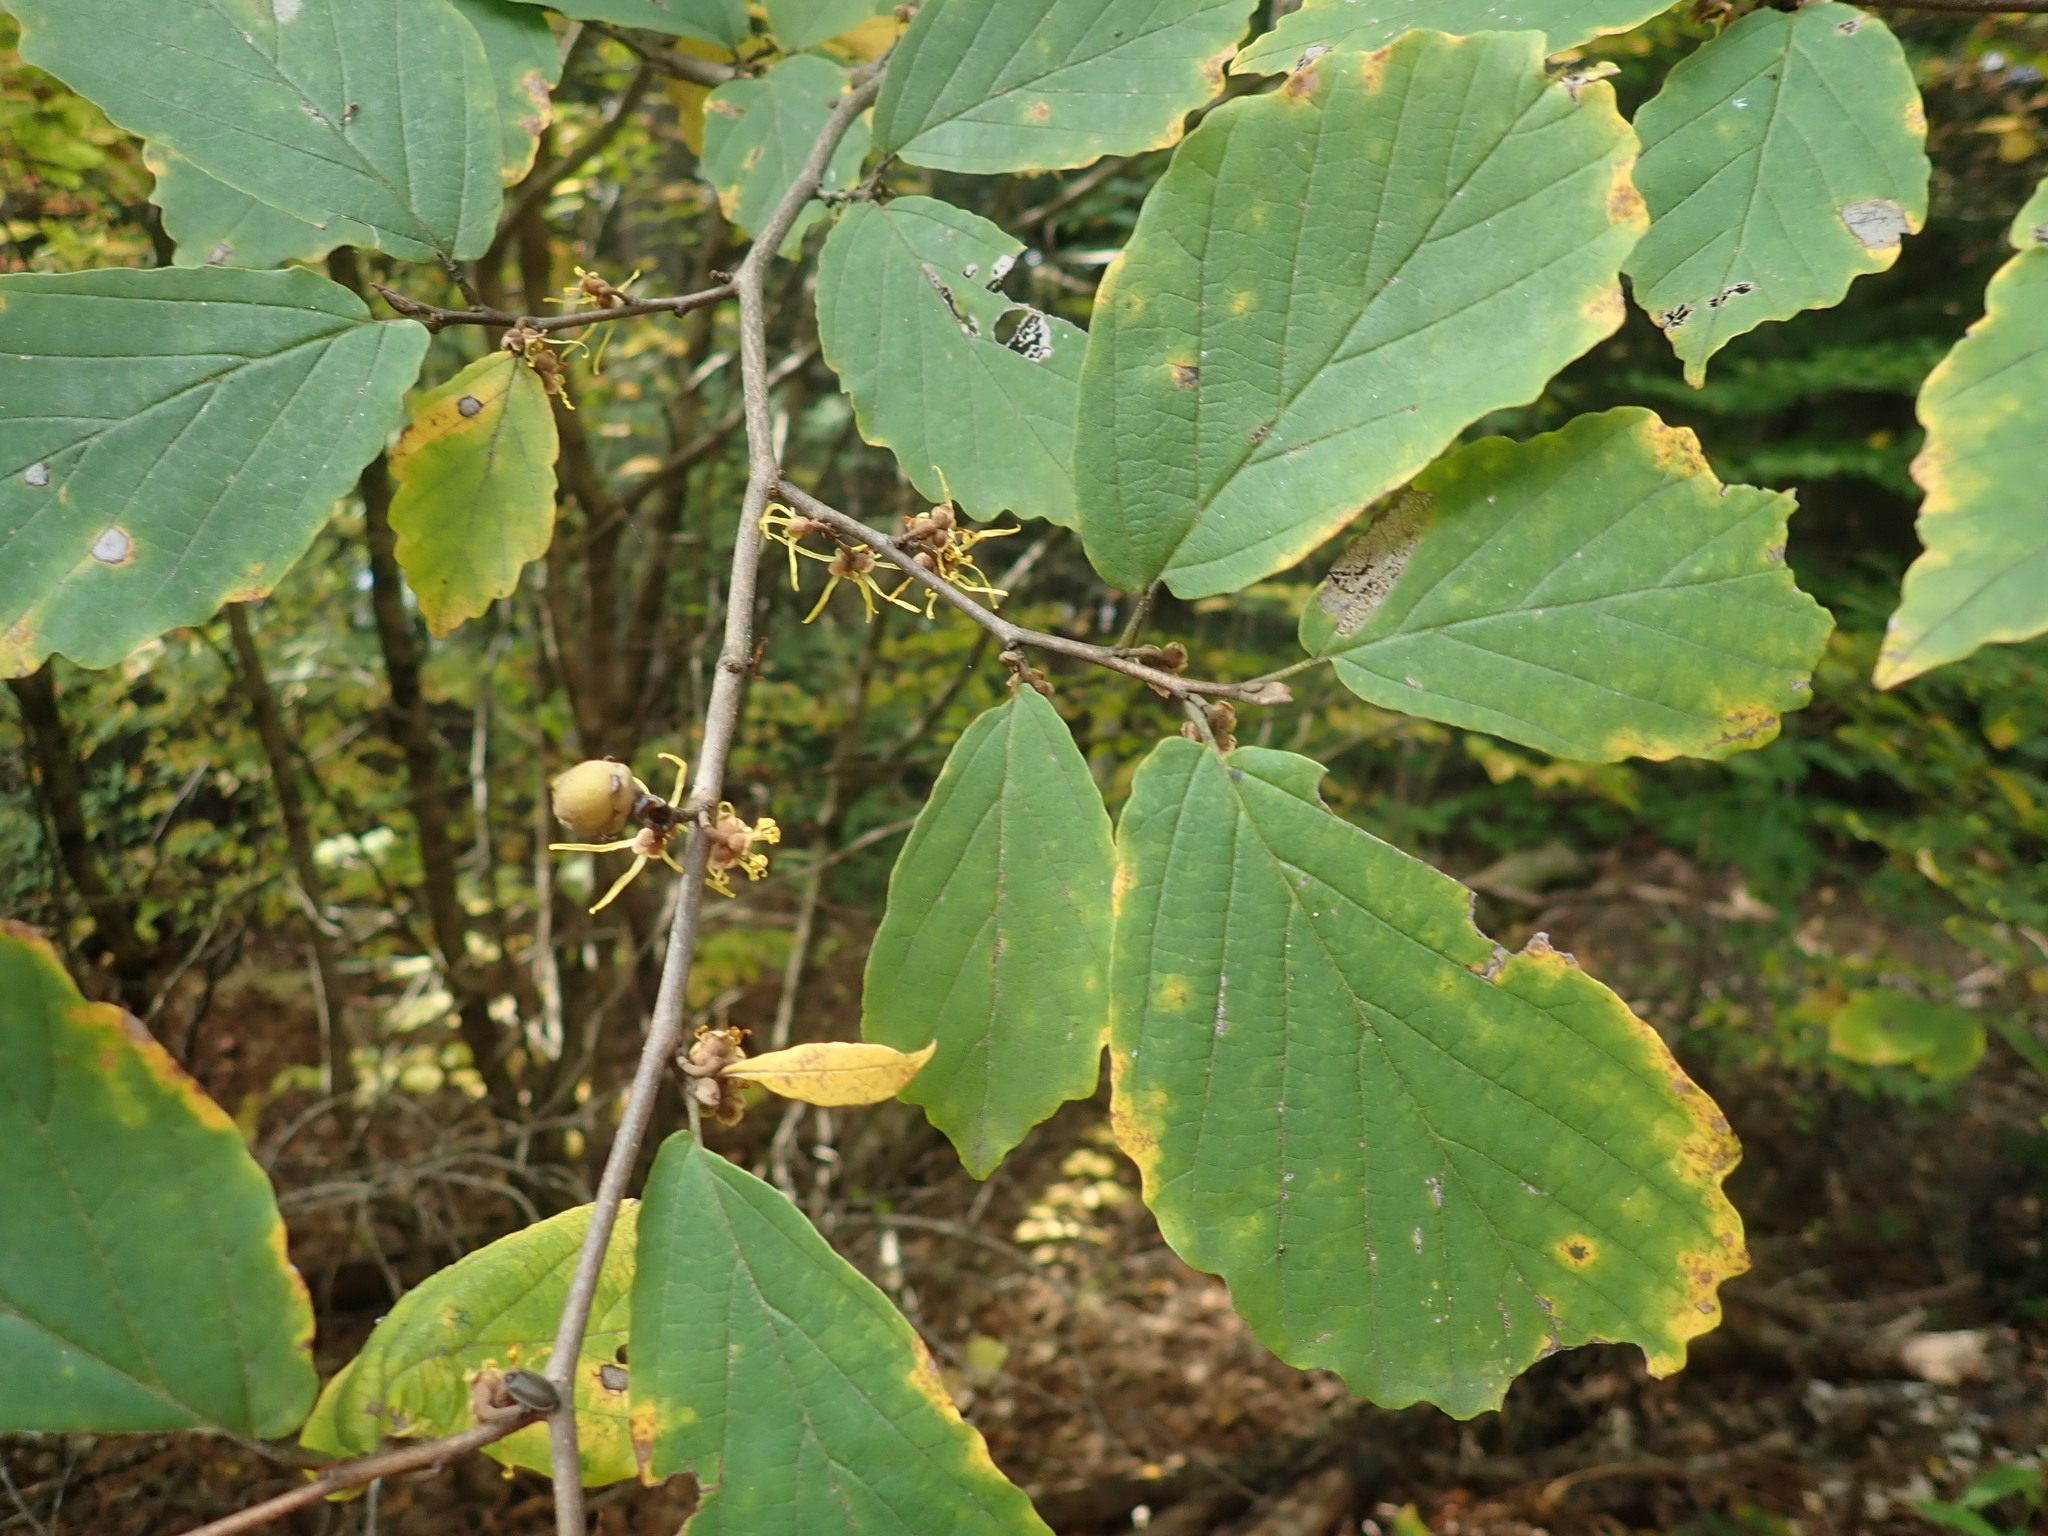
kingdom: Plantae
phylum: Tracheophyta
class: Magnoliopsida
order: Saxifragales
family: Hamamelidaceae
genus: Hamamelis
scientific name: Hamamelis virginiana
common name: Witch-hazel
